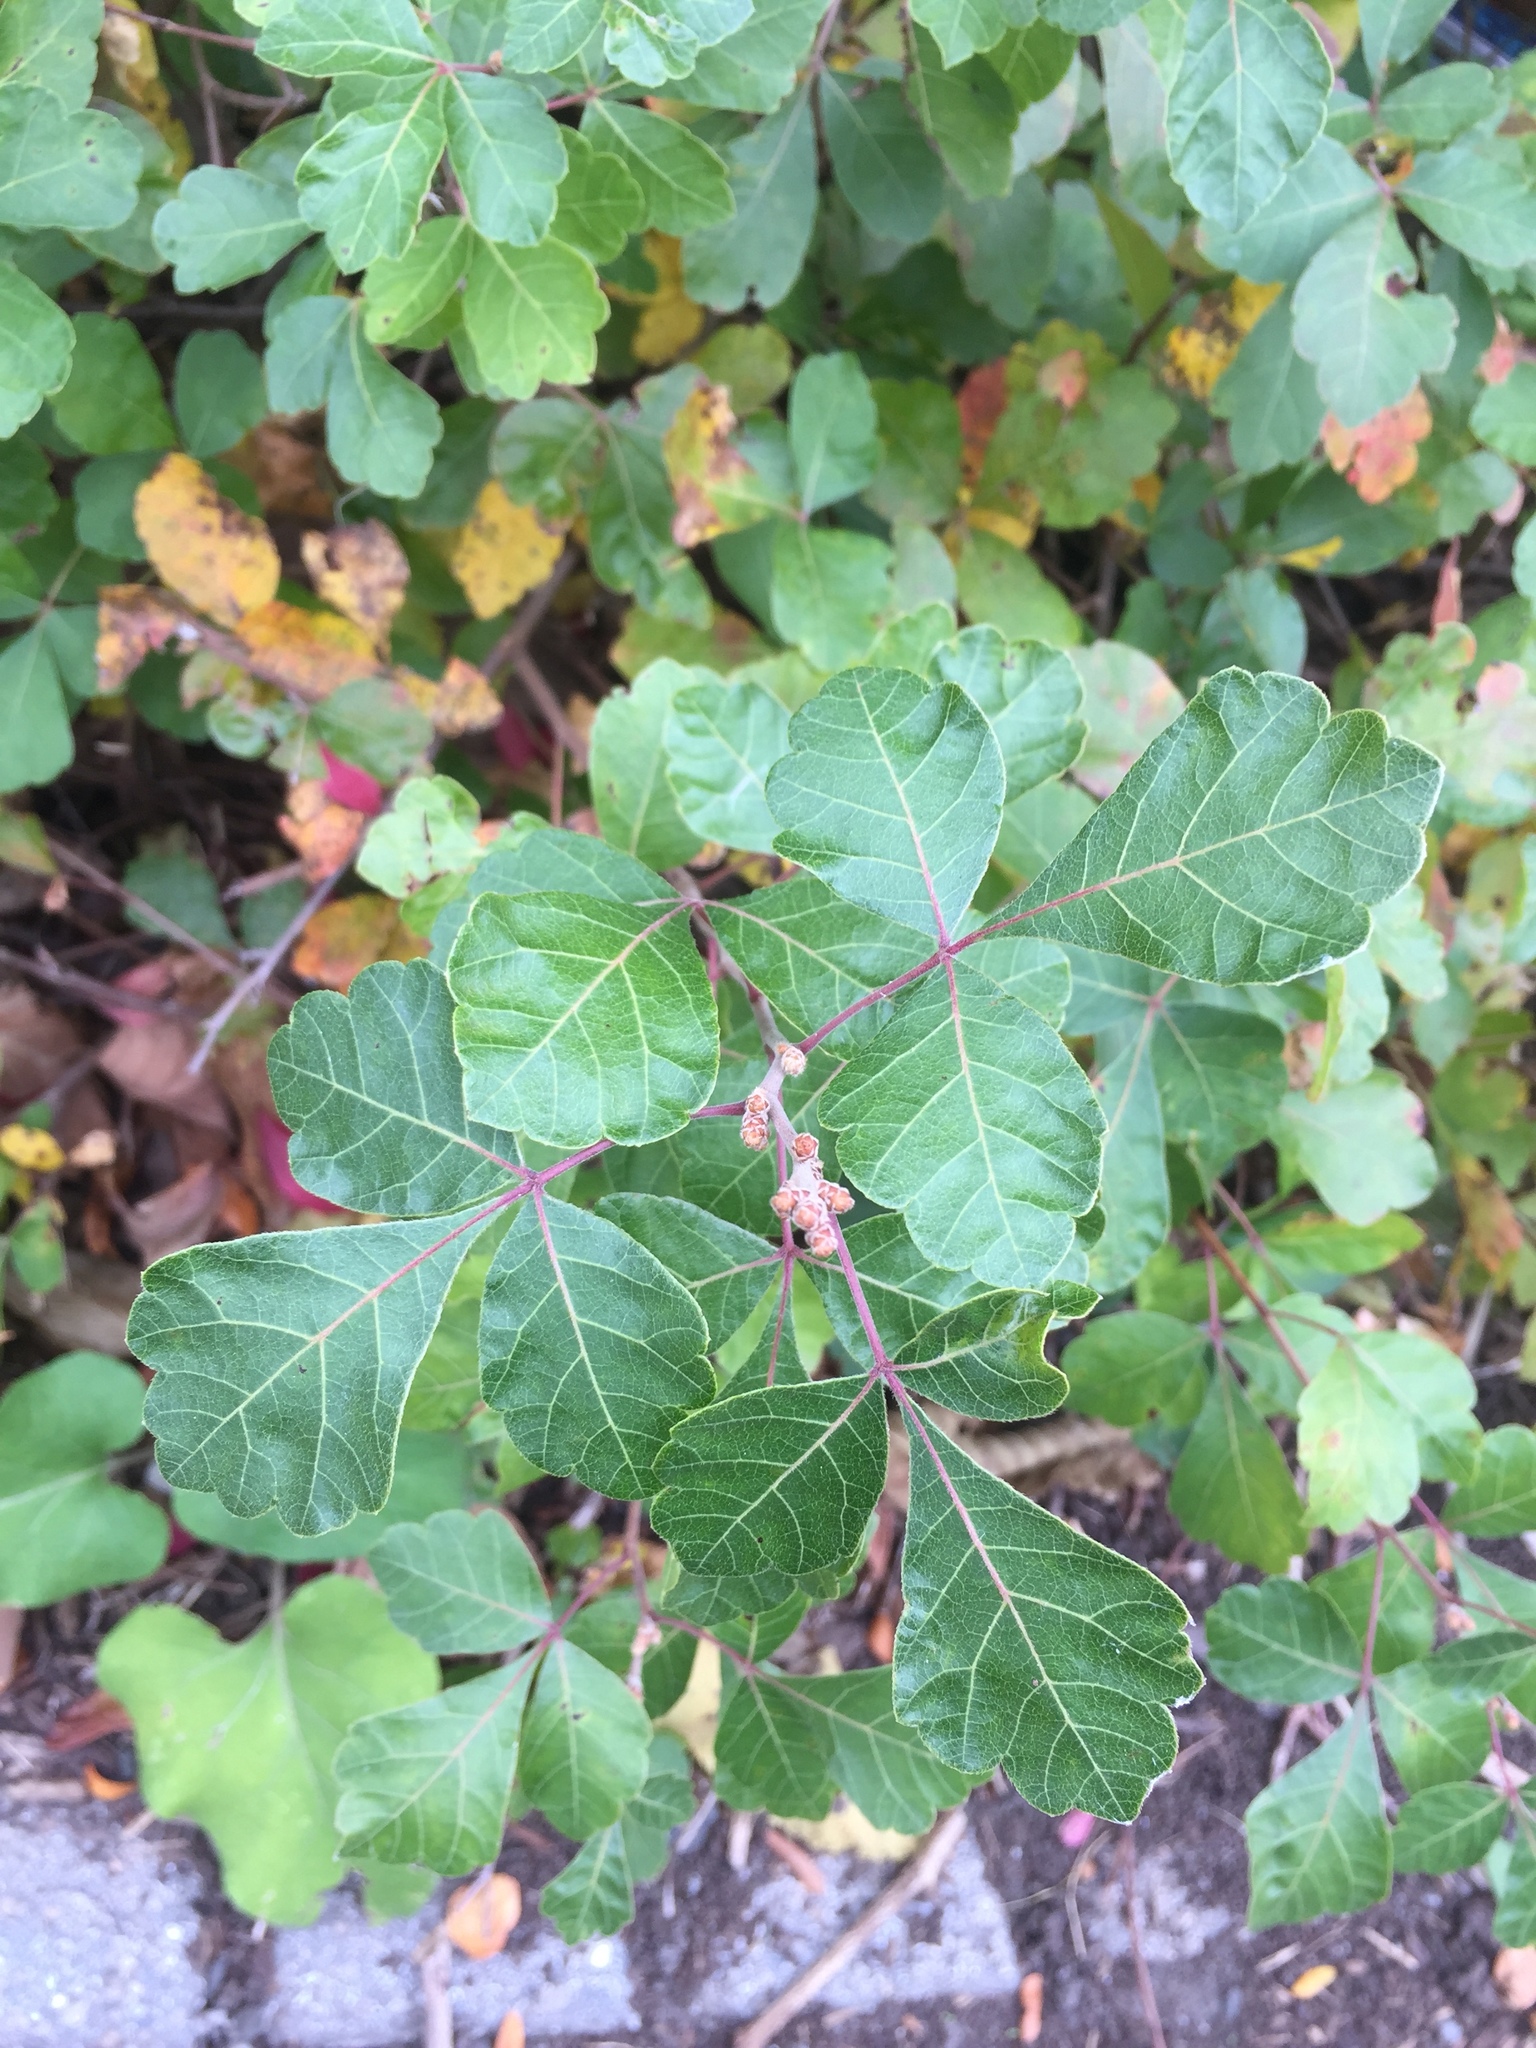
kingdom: Plantae
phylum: Tracheophyta
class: Magnoliopsida
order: Sapindales
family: Anacardiaceae
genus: Rhus
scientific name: Rhus aromatica
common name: Aromatic sumac
